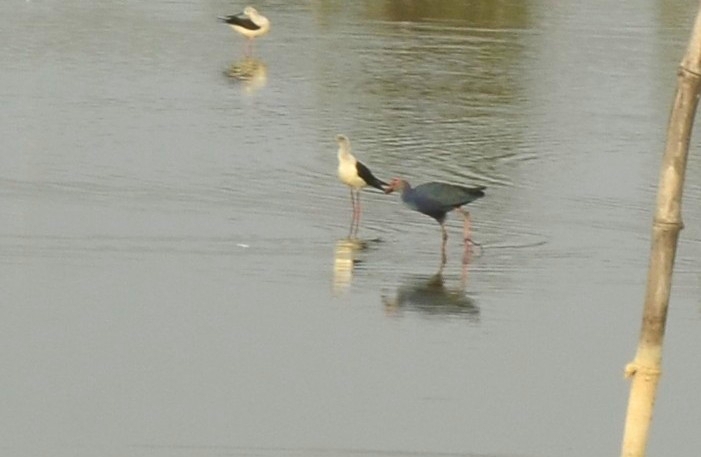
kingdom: Animalia
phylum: Chordata
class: Aves
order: Gruiformes
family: Rallidae
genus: Porphyrio
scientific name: Porphyrio porphyrio
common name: Purple swamphen
